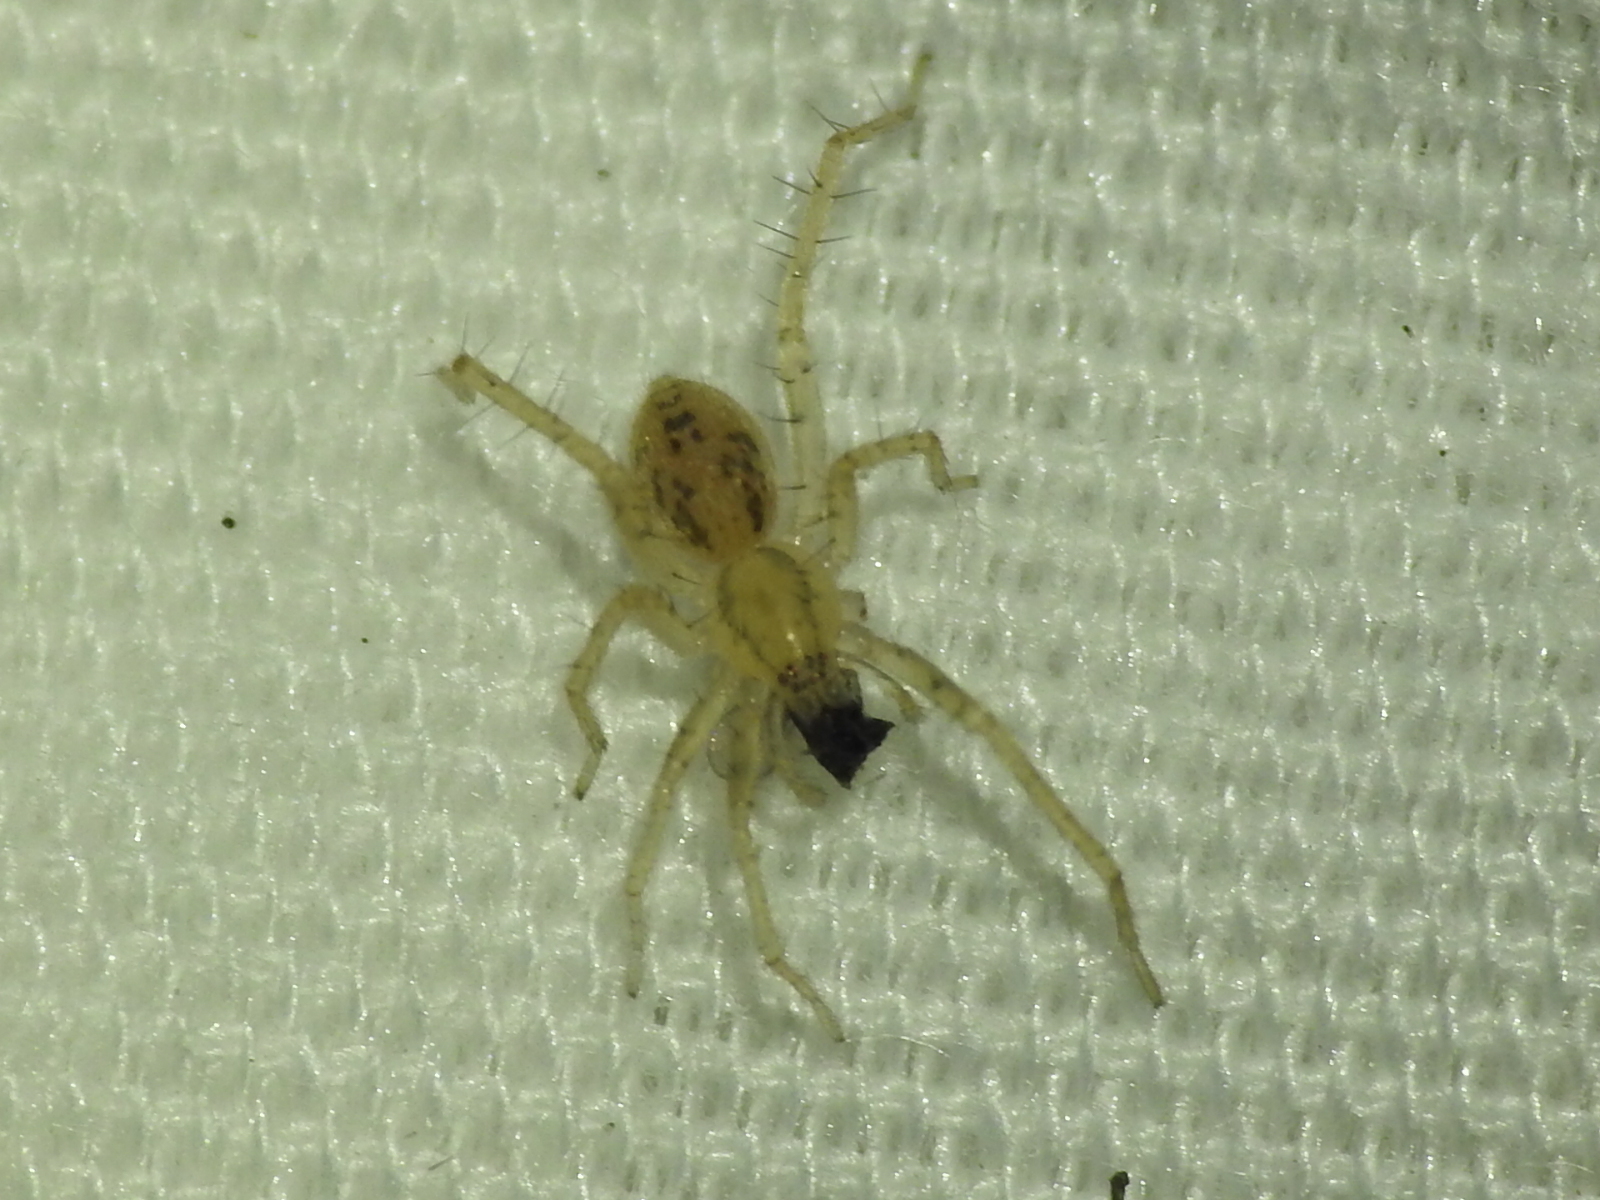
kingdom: Animalia
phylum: Arthropoda
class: Arachnida
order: Araneae
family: Anyphaenidae
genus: Hibana
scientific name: Hibana gracilis
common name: Garden ghost spider
